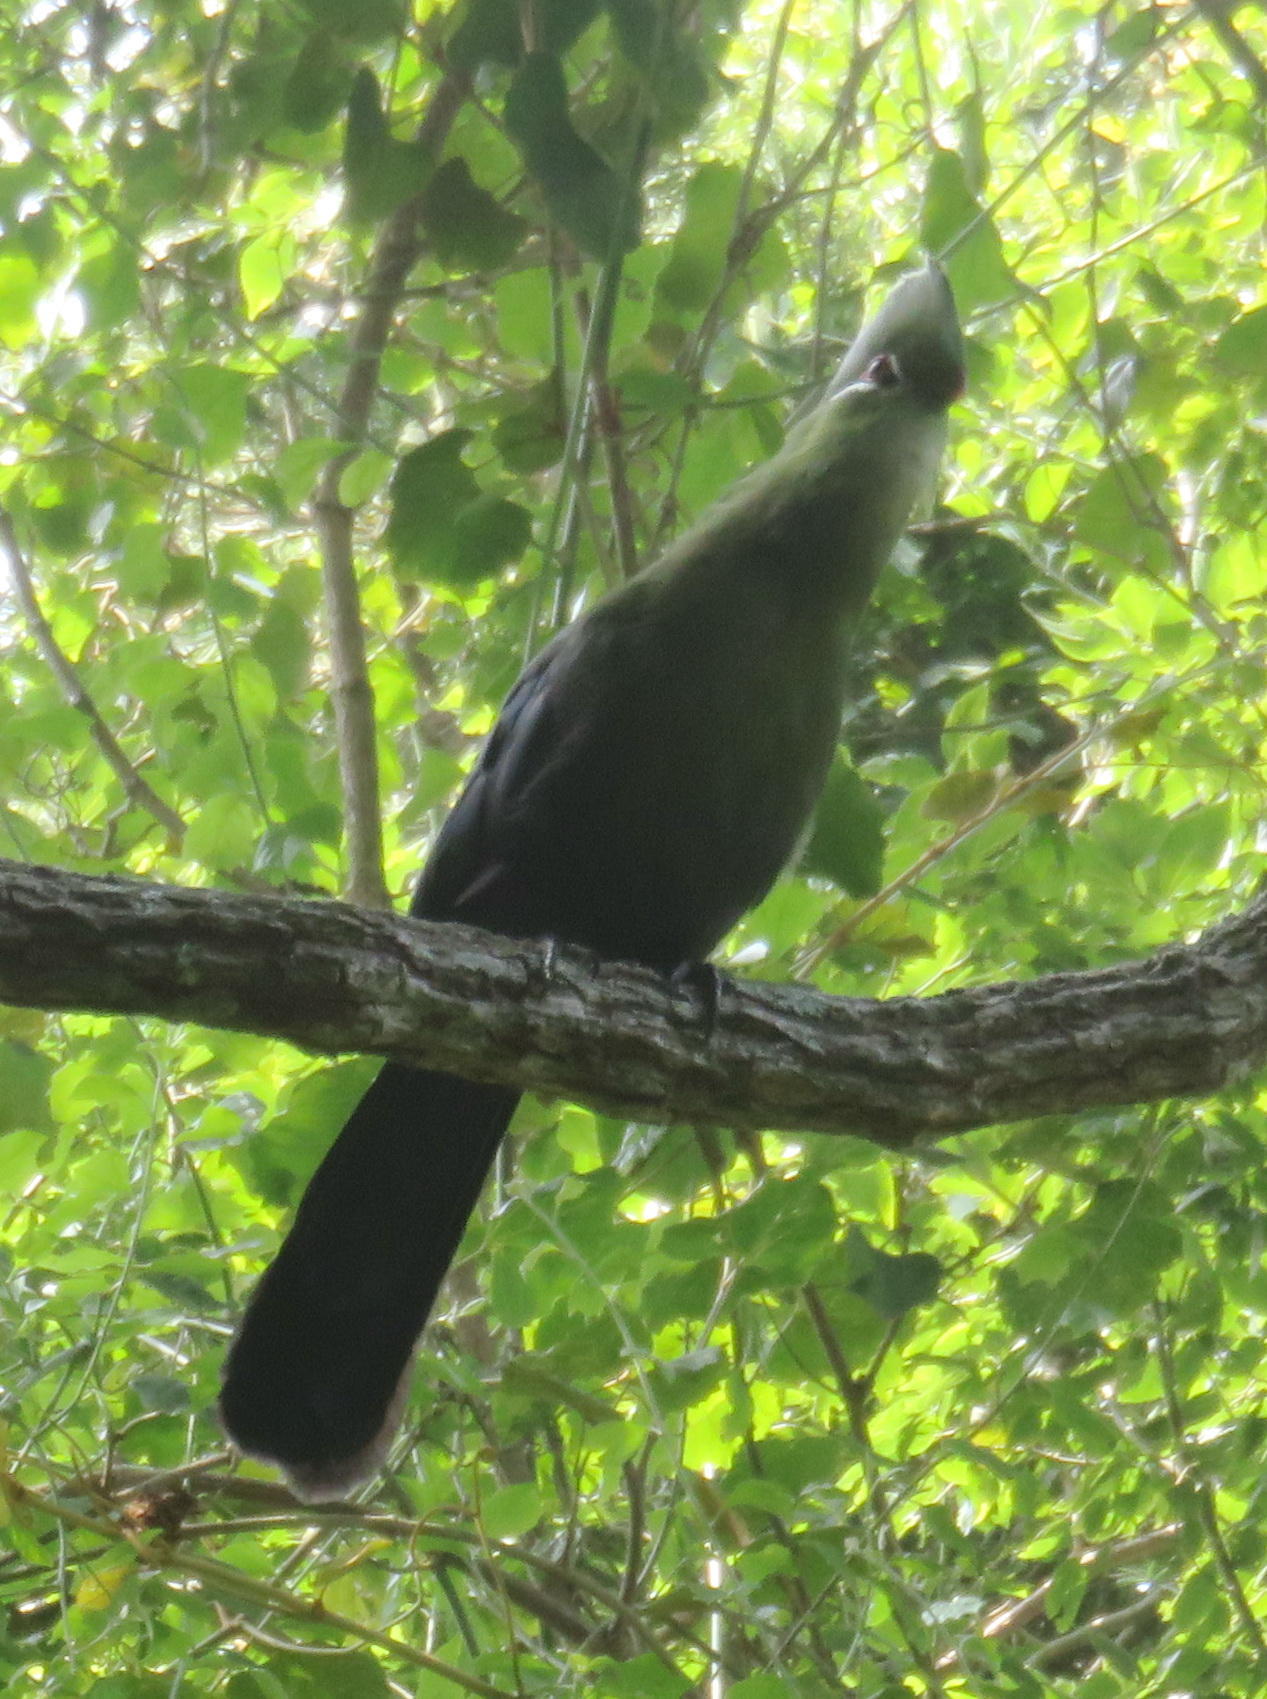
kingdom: Animalia
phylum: Chordata
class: Aves
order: Musophagiformes
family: Musophagidae
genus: Tauraco
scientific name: Tauraco corythaix
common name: Knysna turaco
